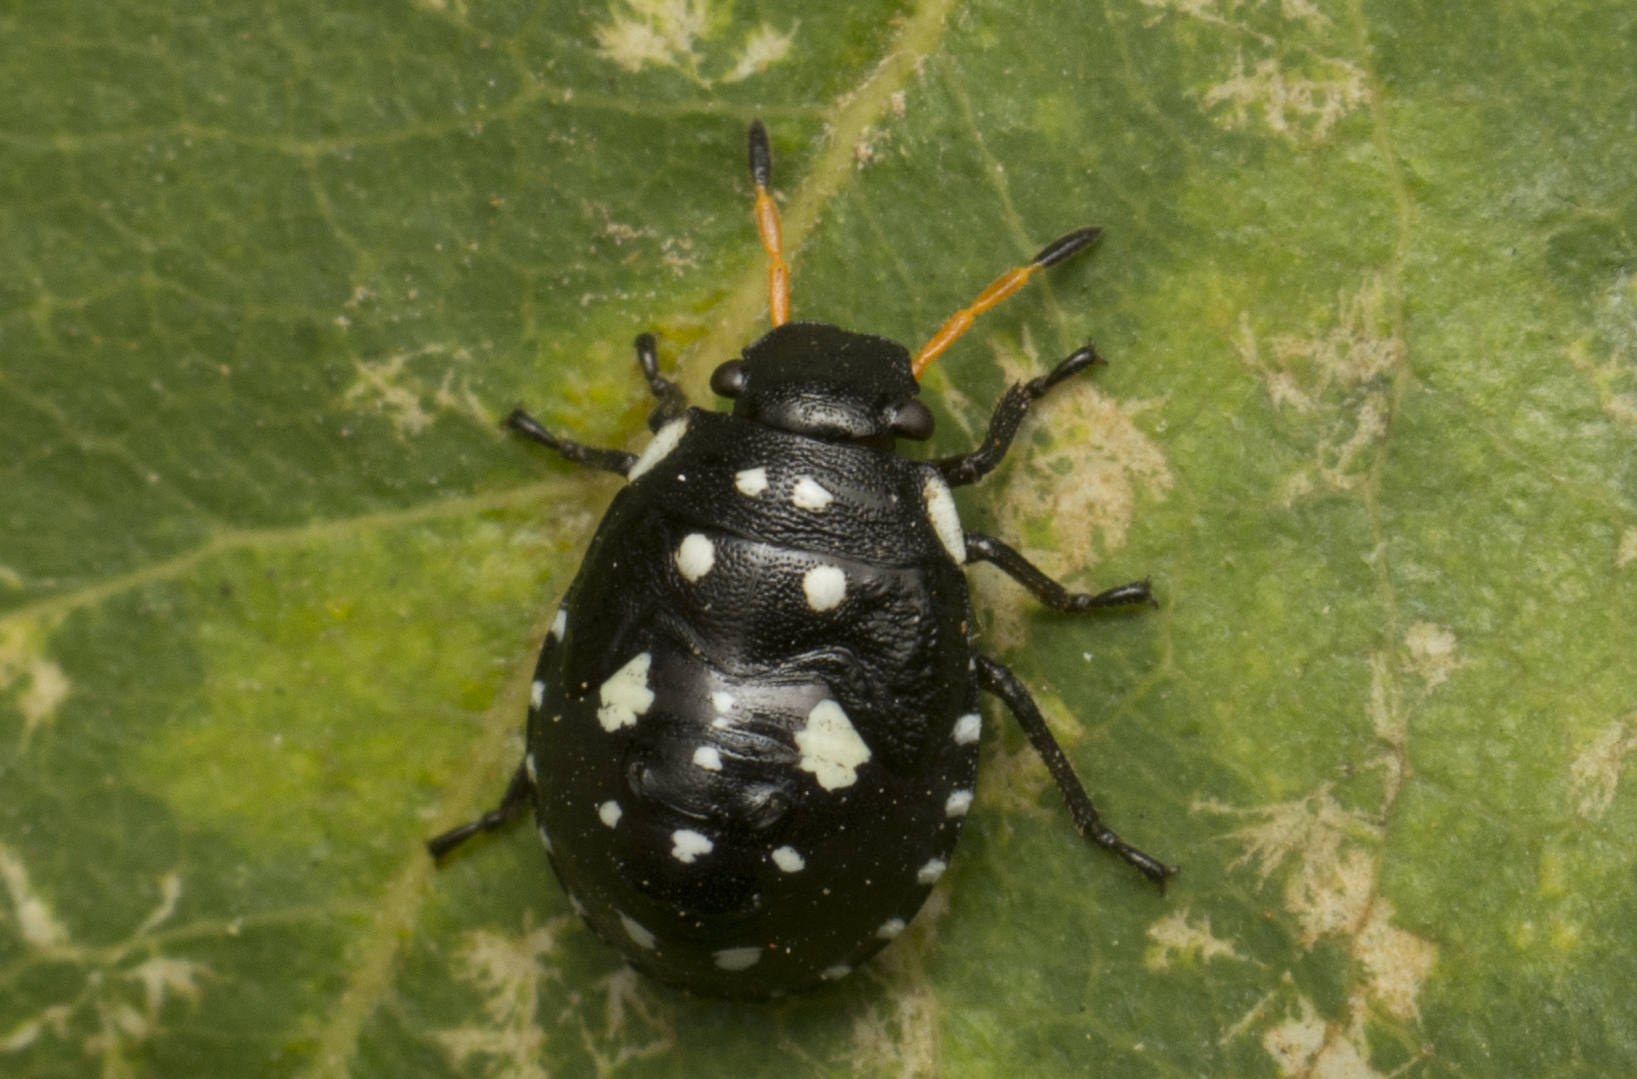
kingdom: Animalia
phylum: Arthropoda
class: Insecta
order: Hemiptera
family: Pentatomidae
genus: Pseudapines
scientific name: Pseudapines
